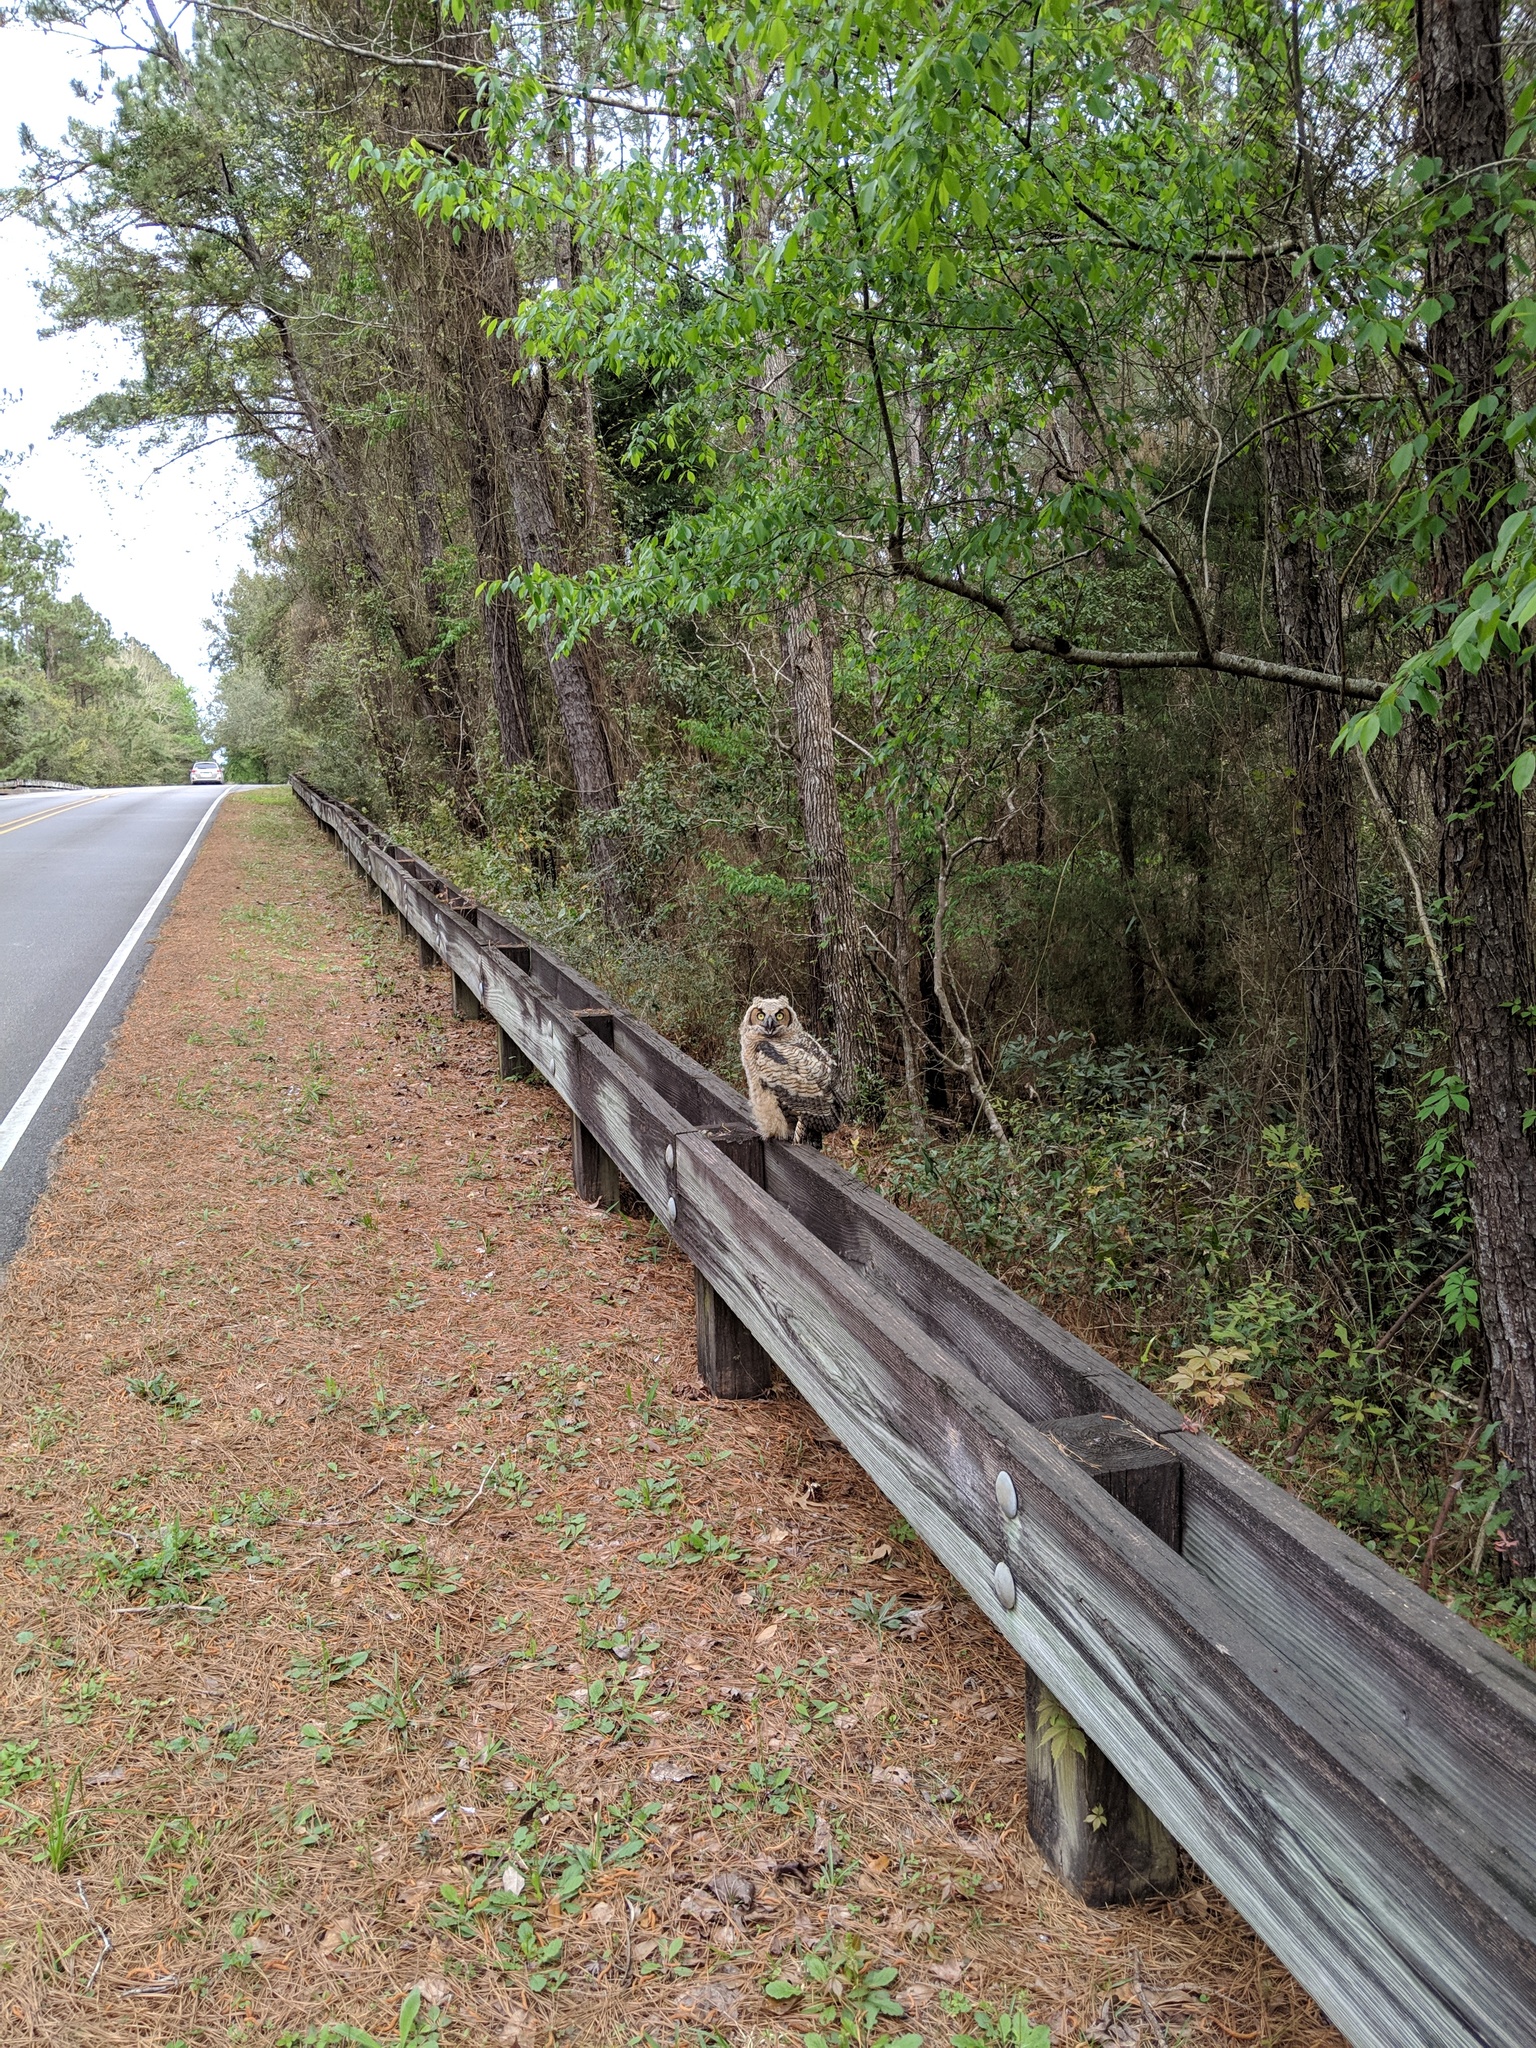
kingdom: Animalia
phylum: Chordata
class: Aves
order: Strigiformes
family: Strigidae
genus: Bubo
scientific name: Bubo virginianus
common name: Great horned owl
